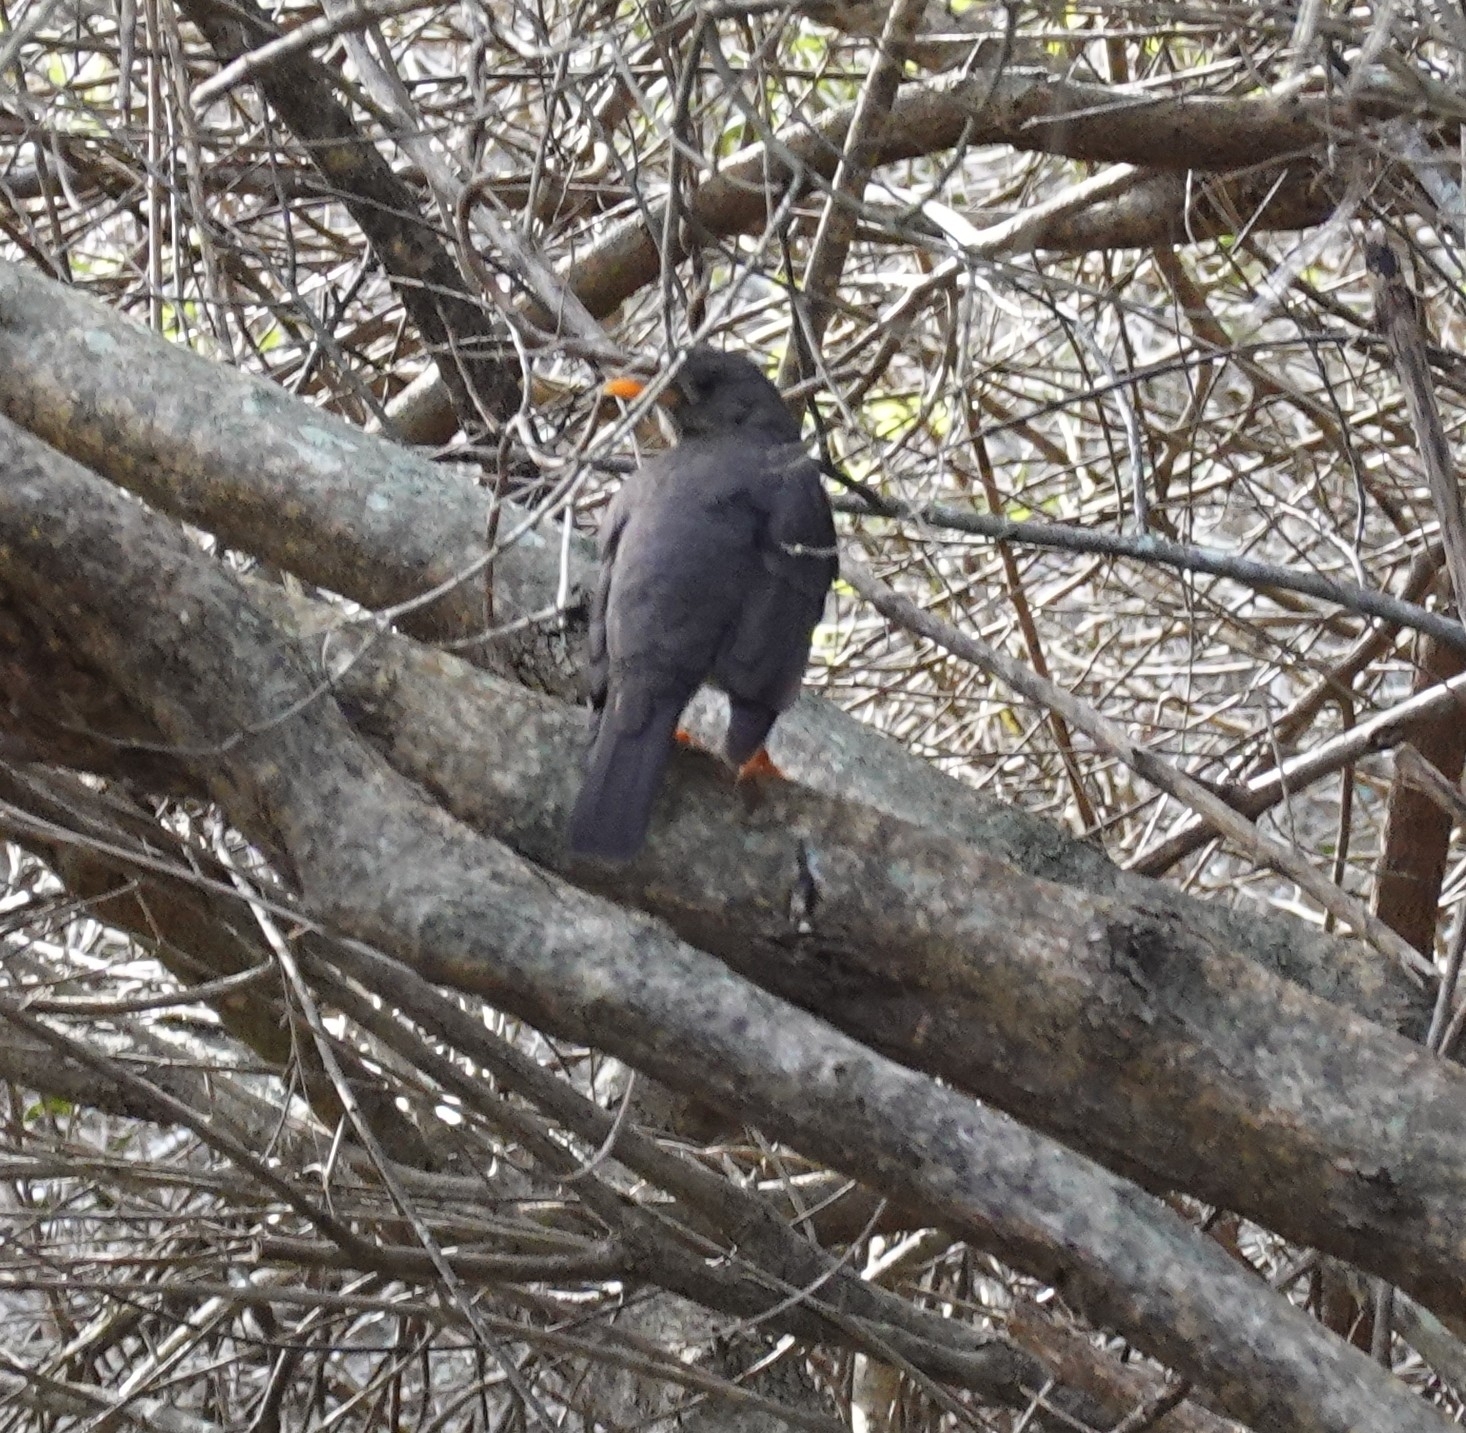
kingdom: Animalia
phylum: Chordata
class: Aves
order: Passeriformes
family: Turdidae
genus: Turdus
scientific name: Turdus olivaceus
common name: Olive thrush
